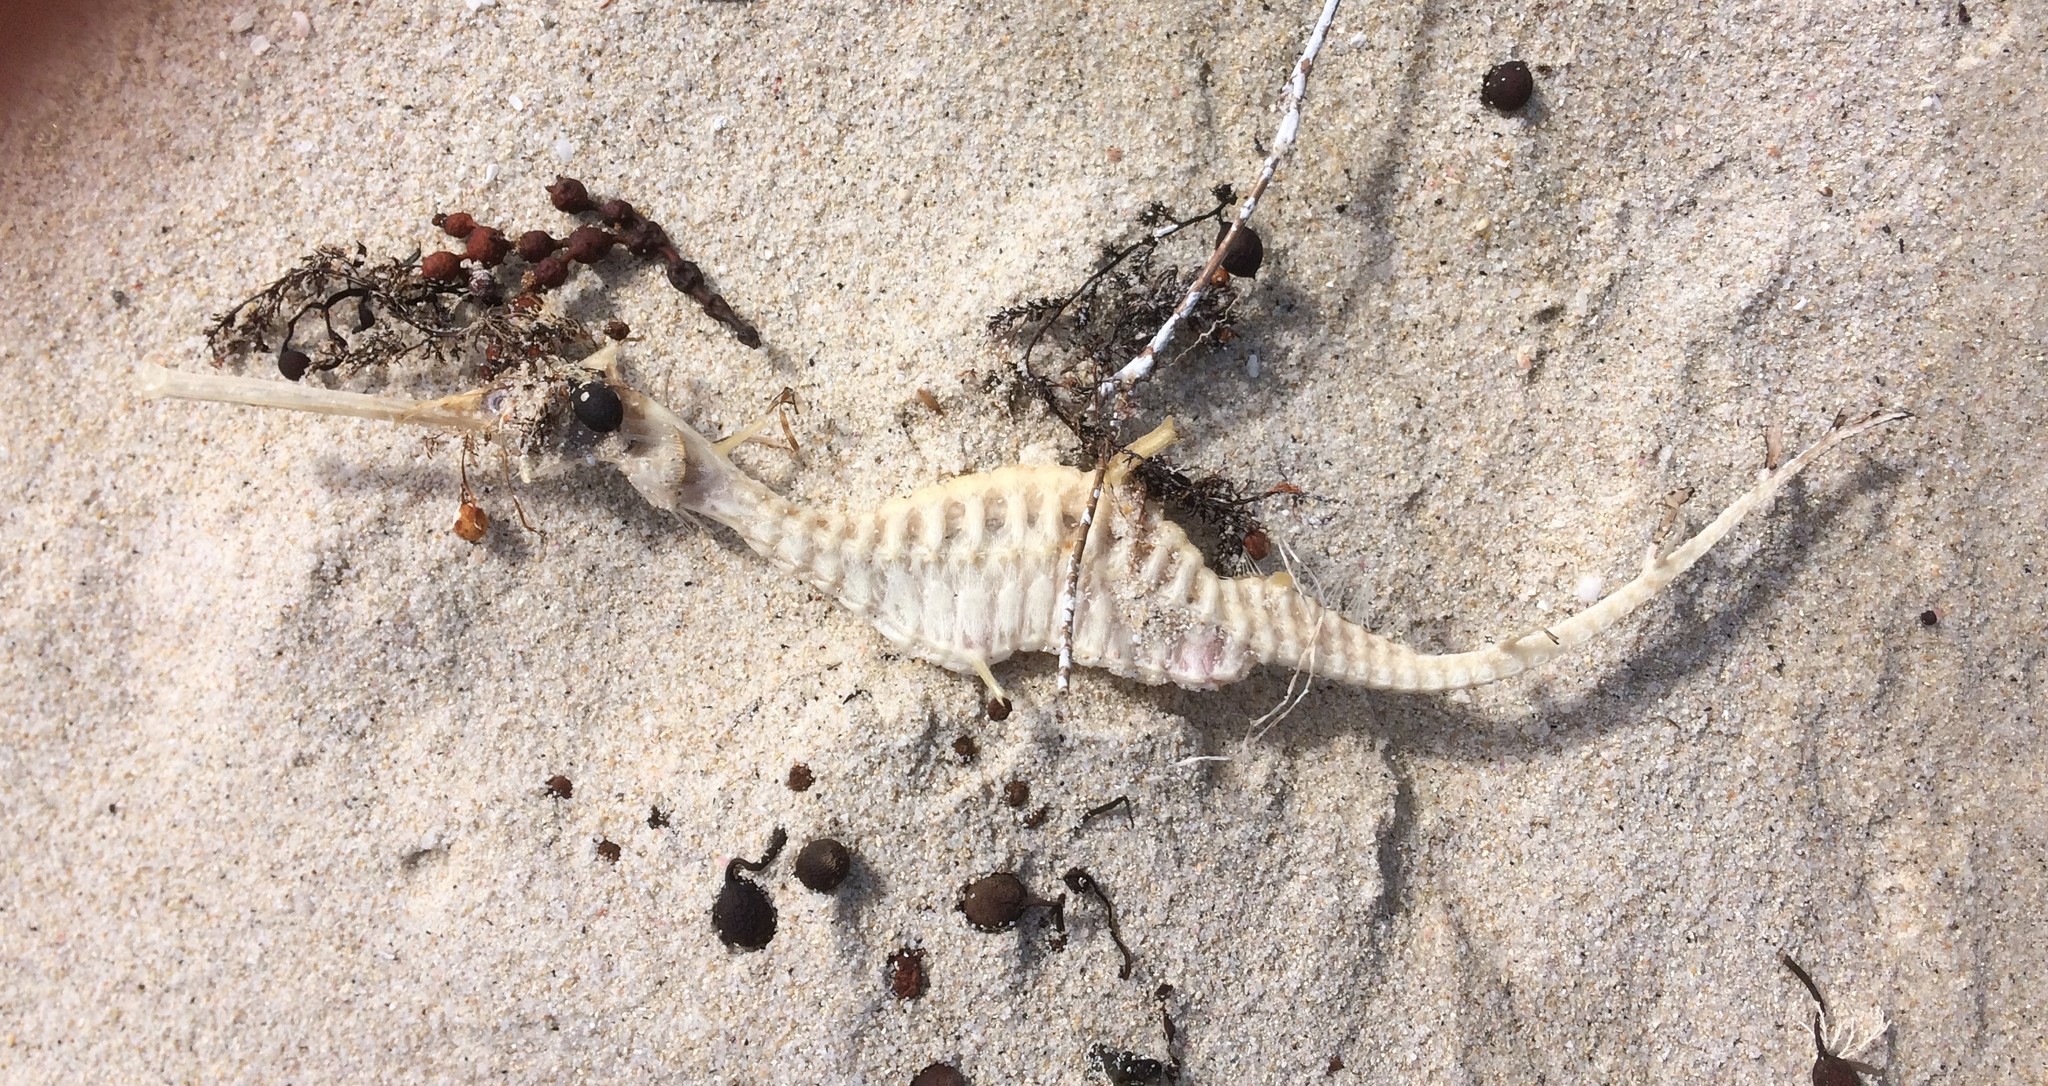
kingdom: Animalia
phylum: Chordata
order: Syngnathiformes
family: Syngnathidae
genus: Phyllopteryx
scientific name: Phyllopteryx taeniolatus
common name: Common seadragon
